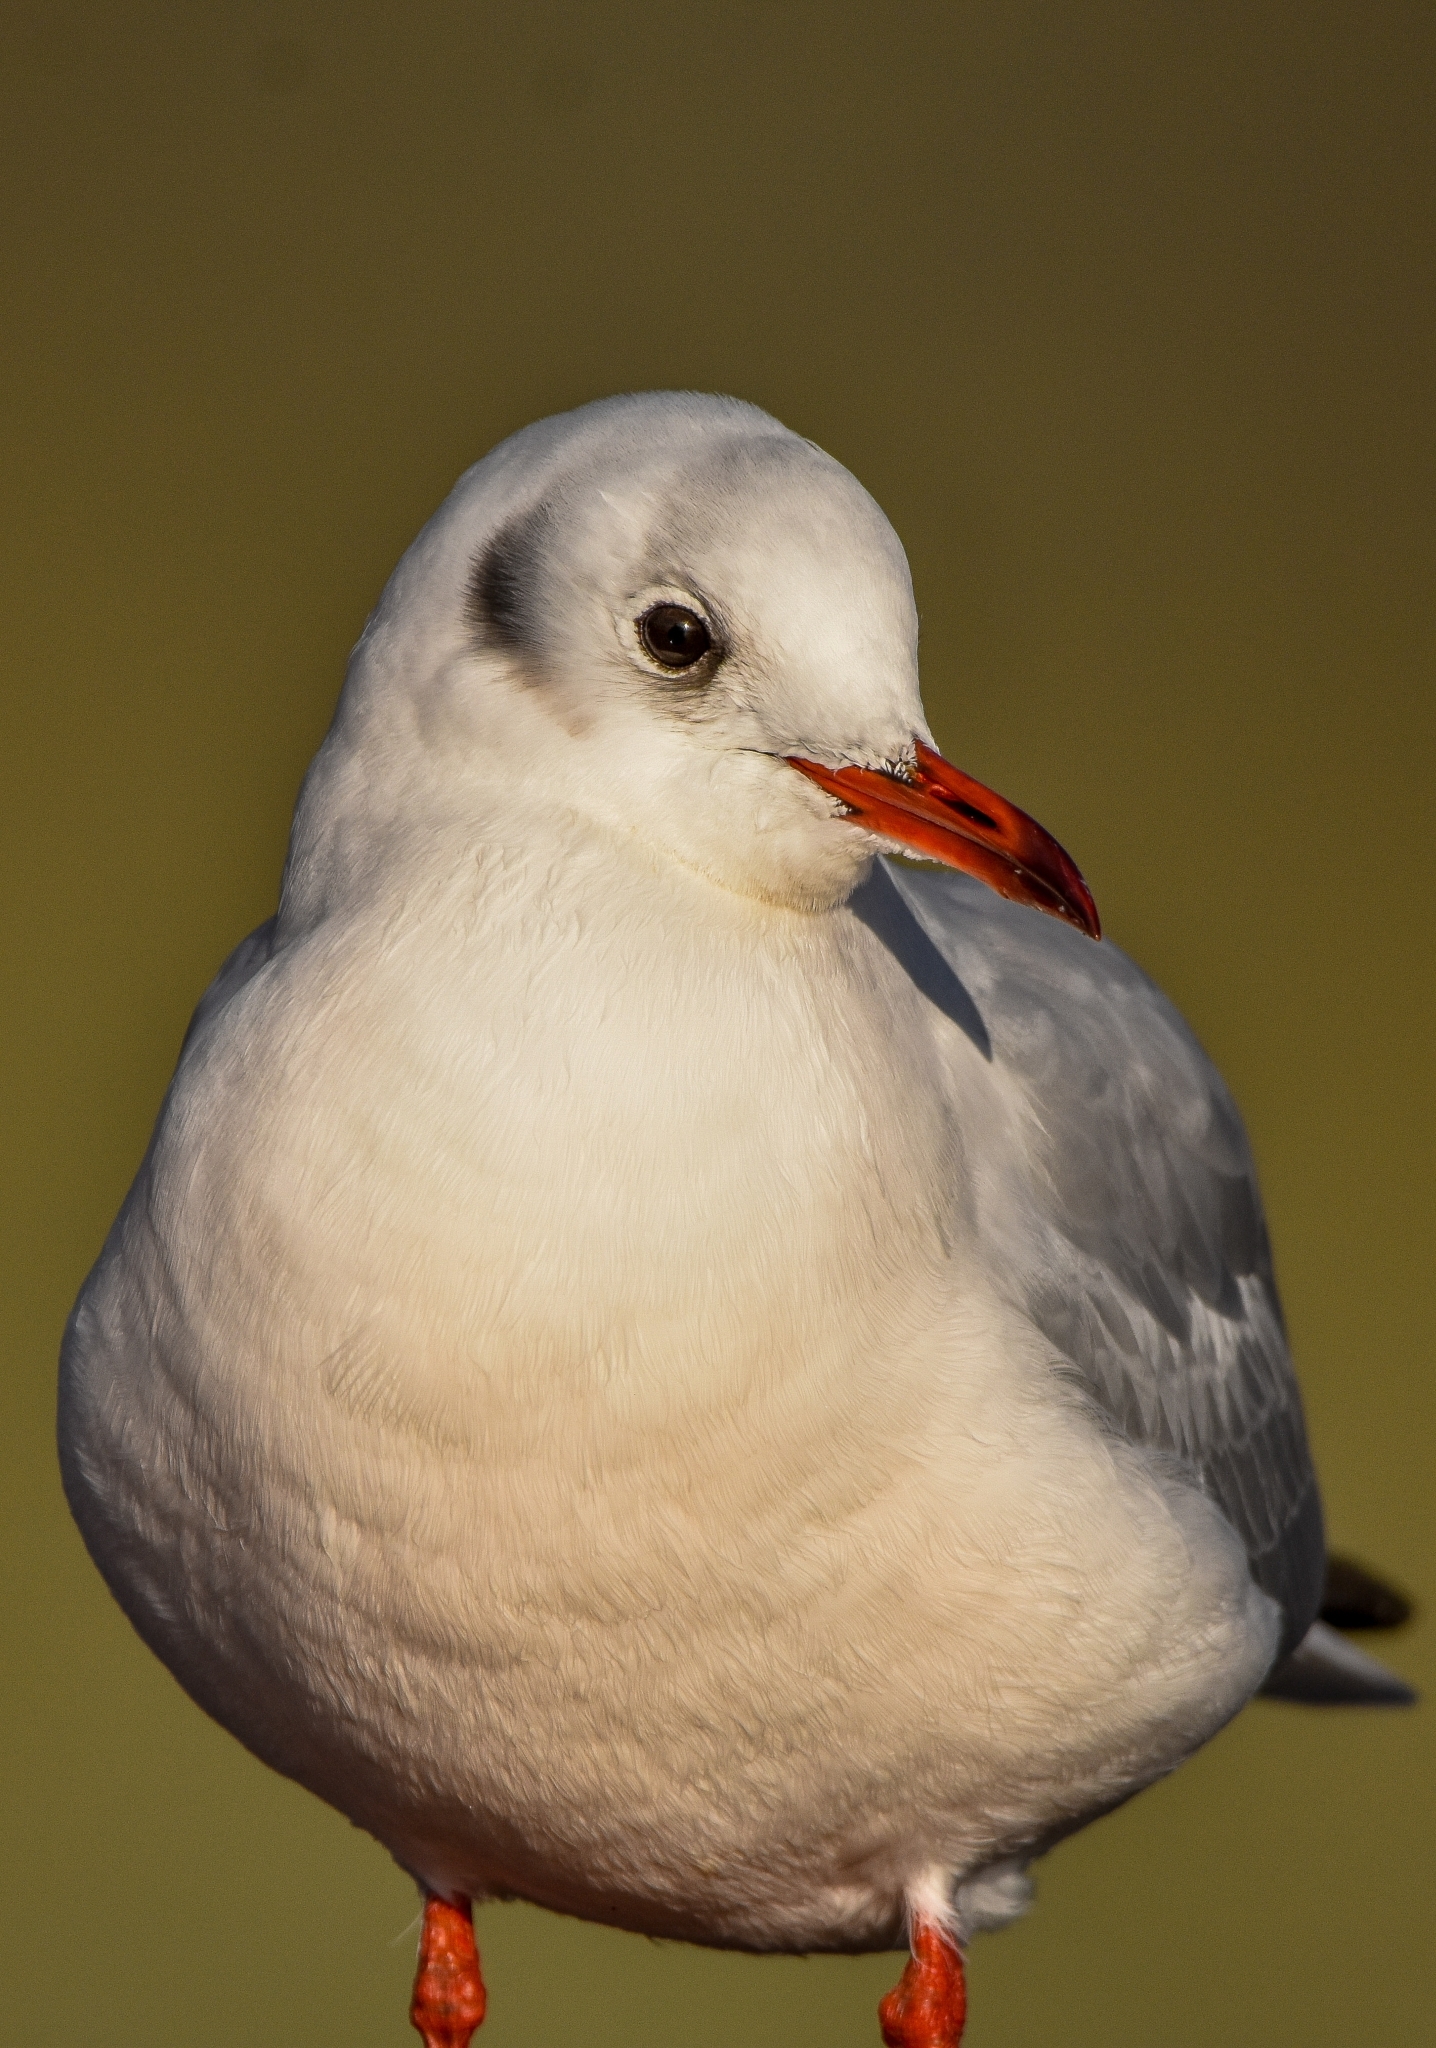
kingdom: Animalia
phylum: Chordata
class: Aves
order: Charadriiformes
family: Laridae
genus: Chroicocephalus
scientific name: Chroicocephalus ridibundus
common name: Black-headed gull
